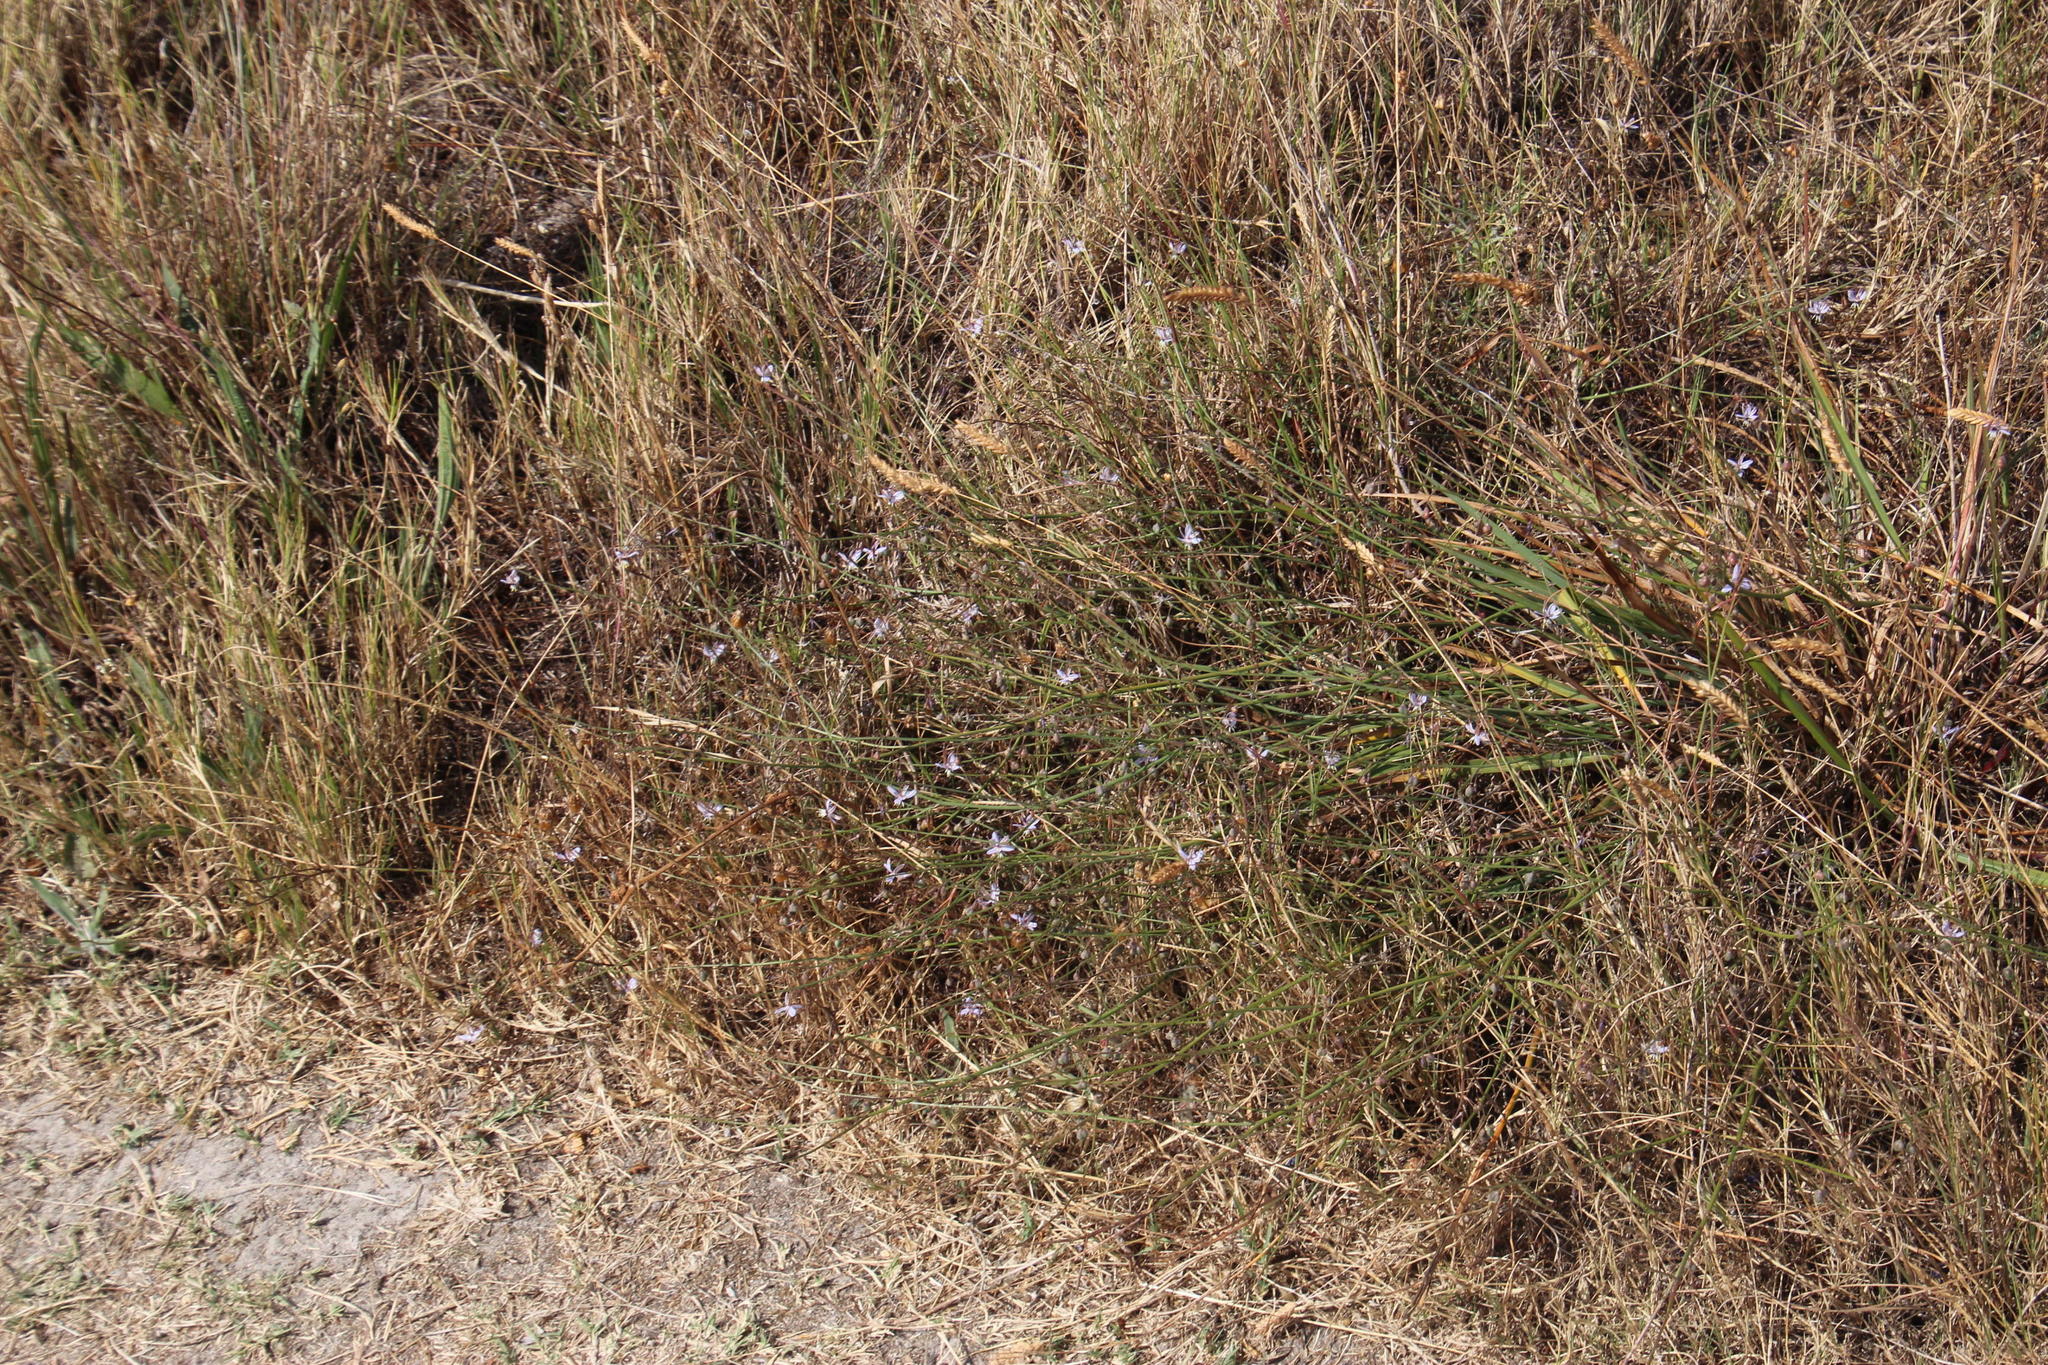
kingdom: Plantae
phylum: Tracheophyta
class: Liliopsida
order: Asparagales
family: Asphodelaceae
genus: Caesia
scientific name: Caesia contorta
